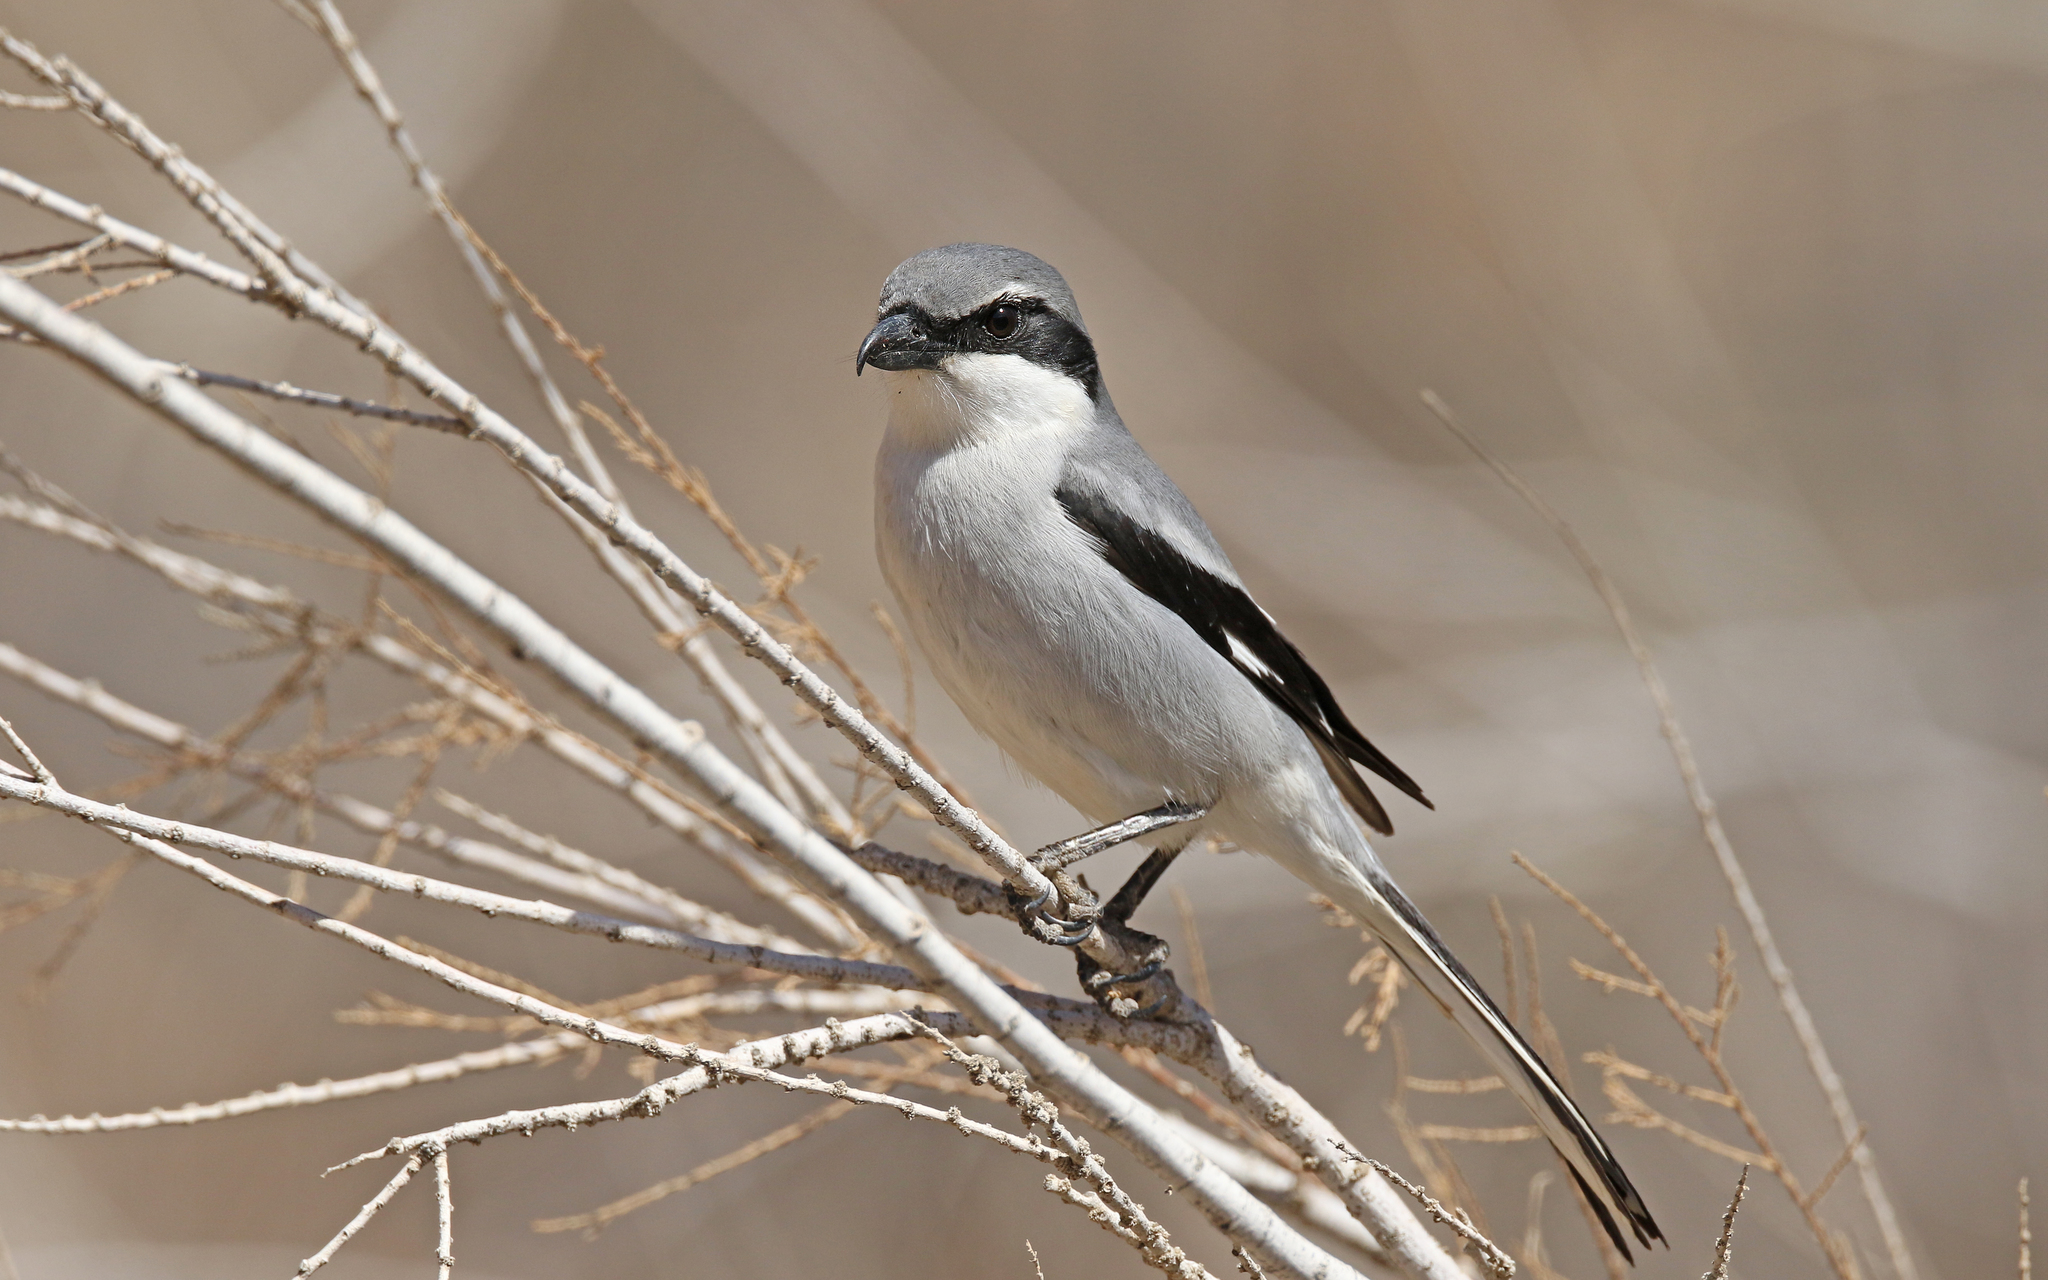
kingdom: Animalia
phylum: Chordata
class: Aves
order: Passeriformes
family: Laniidae
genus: Lanius
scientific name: Lanius excubitor
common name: Great grey shrike
